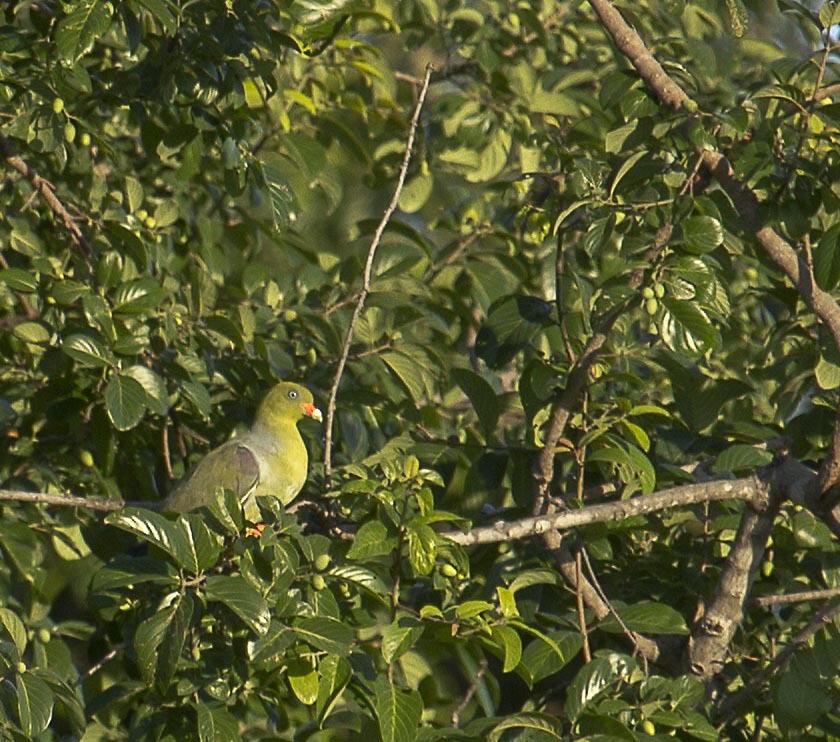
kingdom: Animalia
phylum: Chordata
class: Aves
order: Columbiformes
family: Columbidae
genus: Treron
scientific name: Treron calvus
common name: African green pigeon
